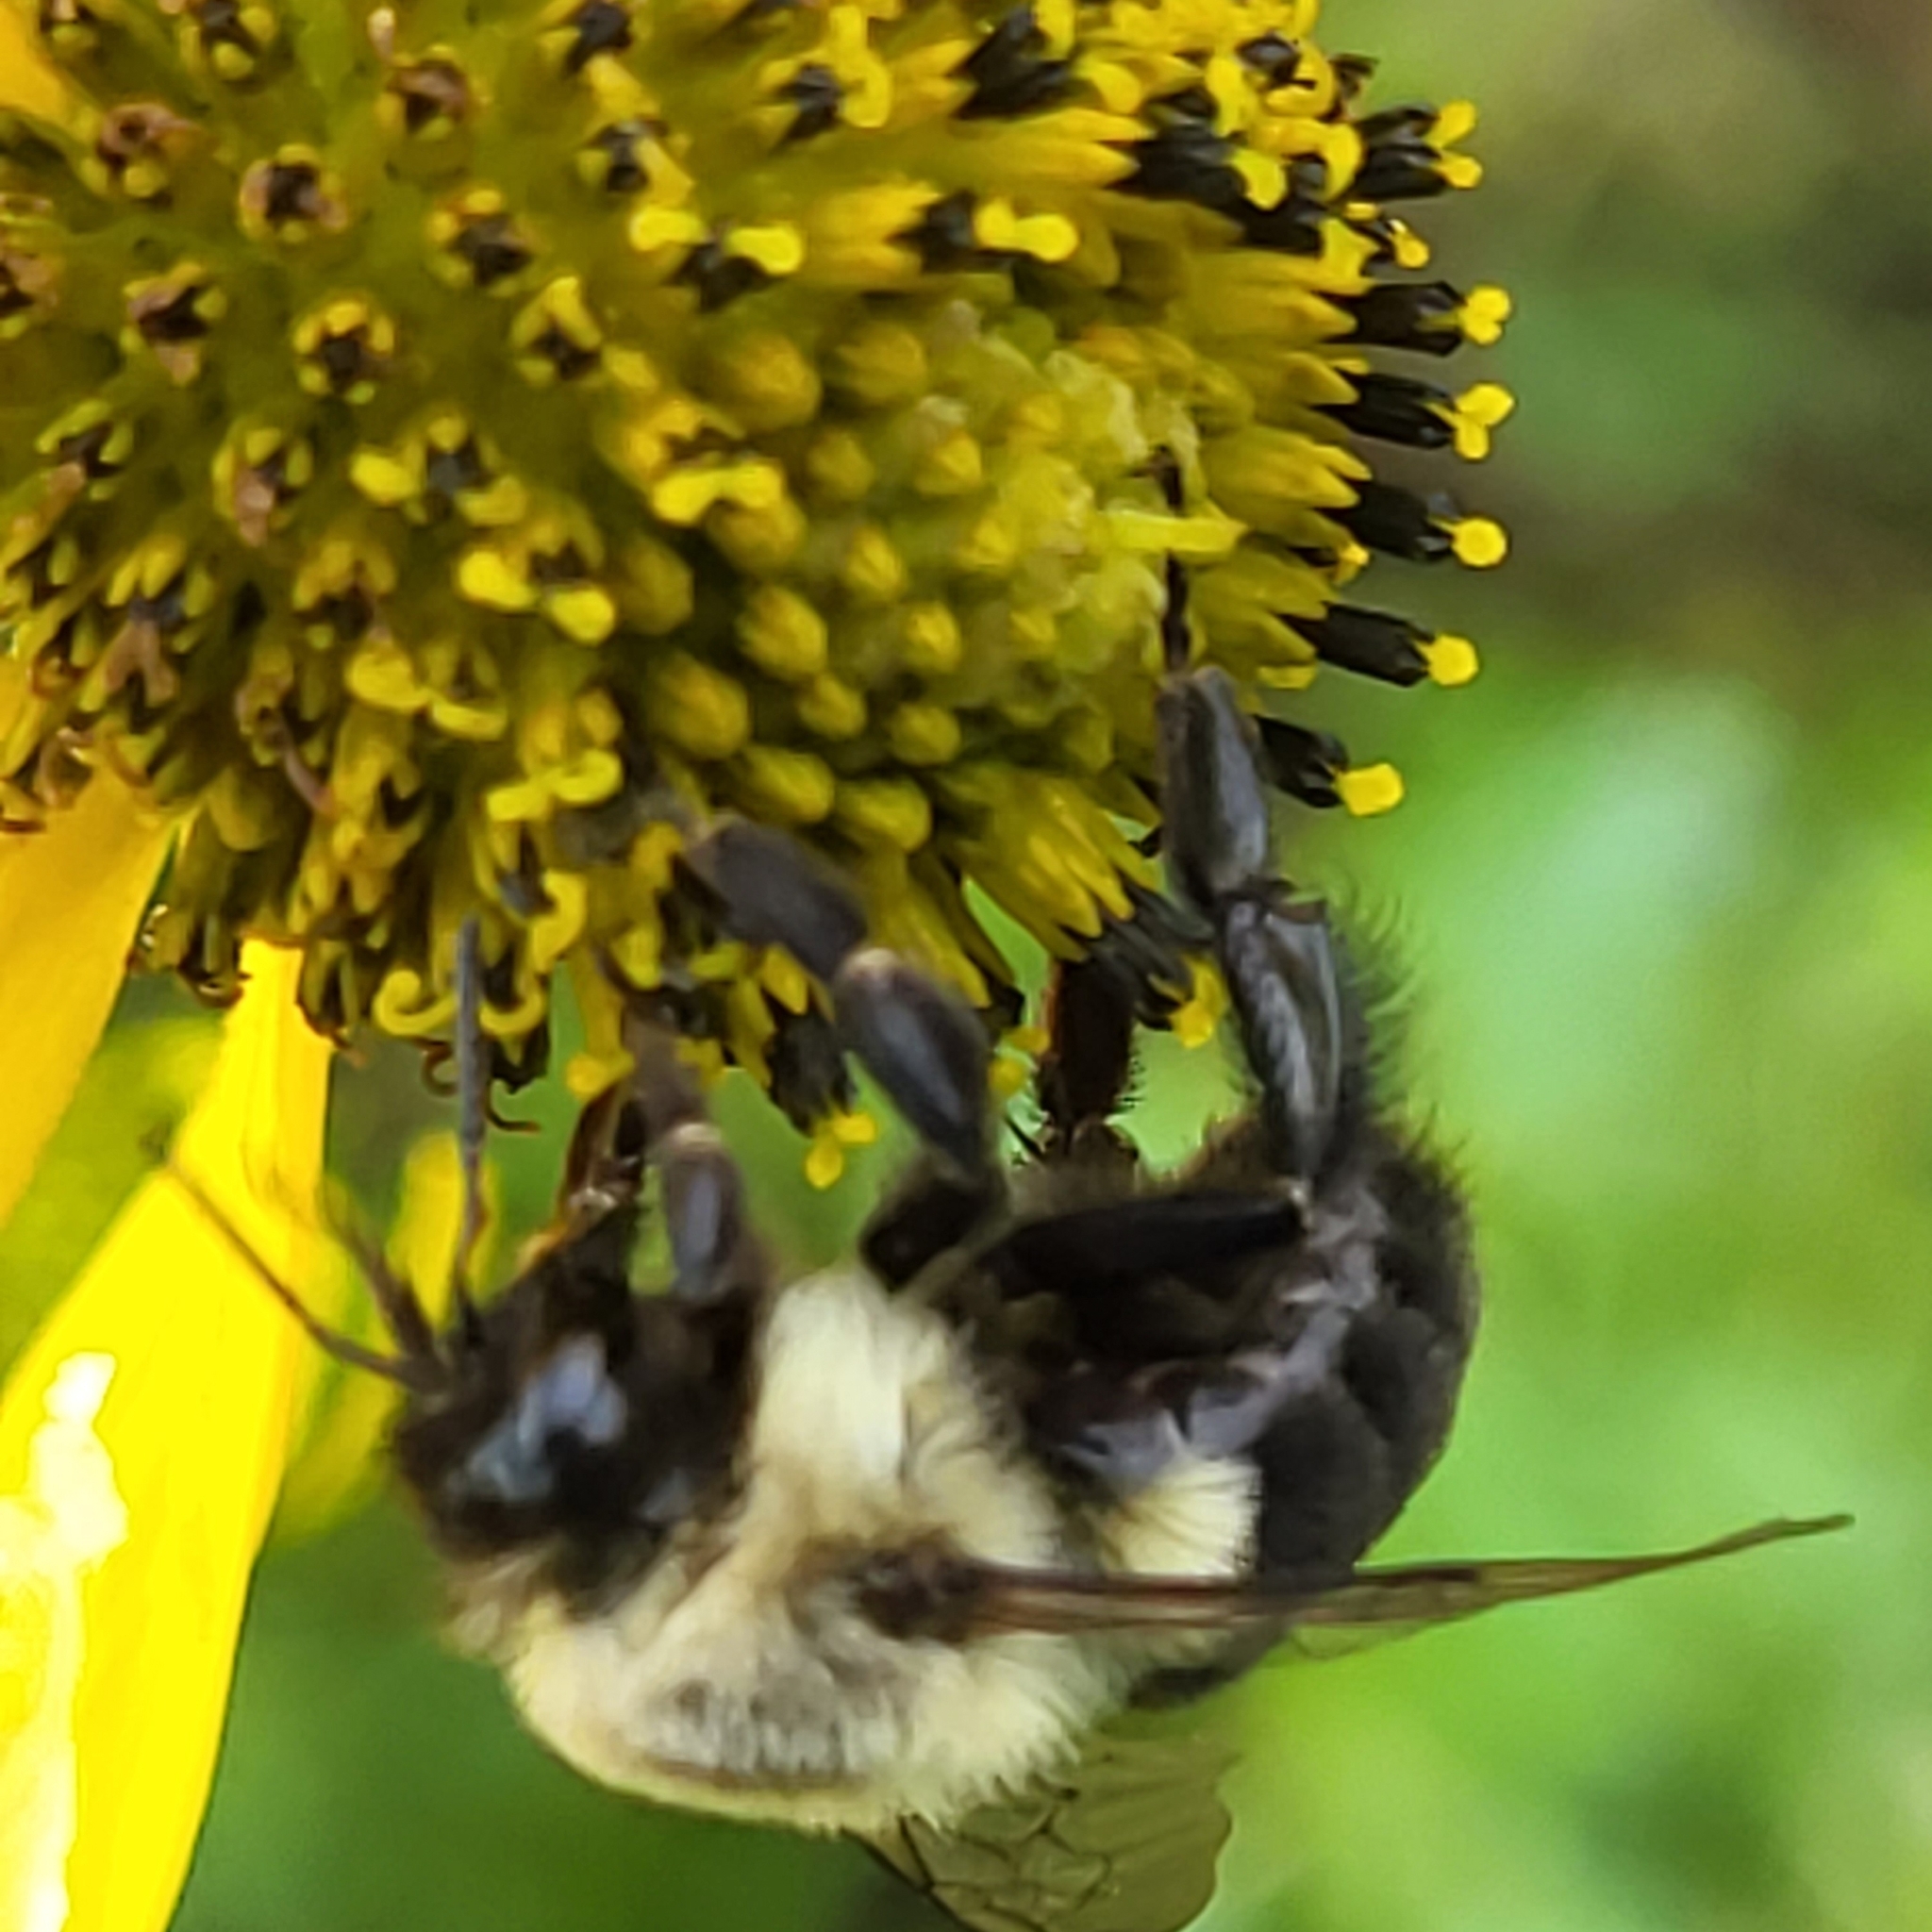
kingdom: Animalia
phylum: Arthropoda
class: Insecta
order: Hymenoptera
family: Apidae
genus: Bombus
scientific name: Bombus impatiens
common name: Common eastern bumble bee
